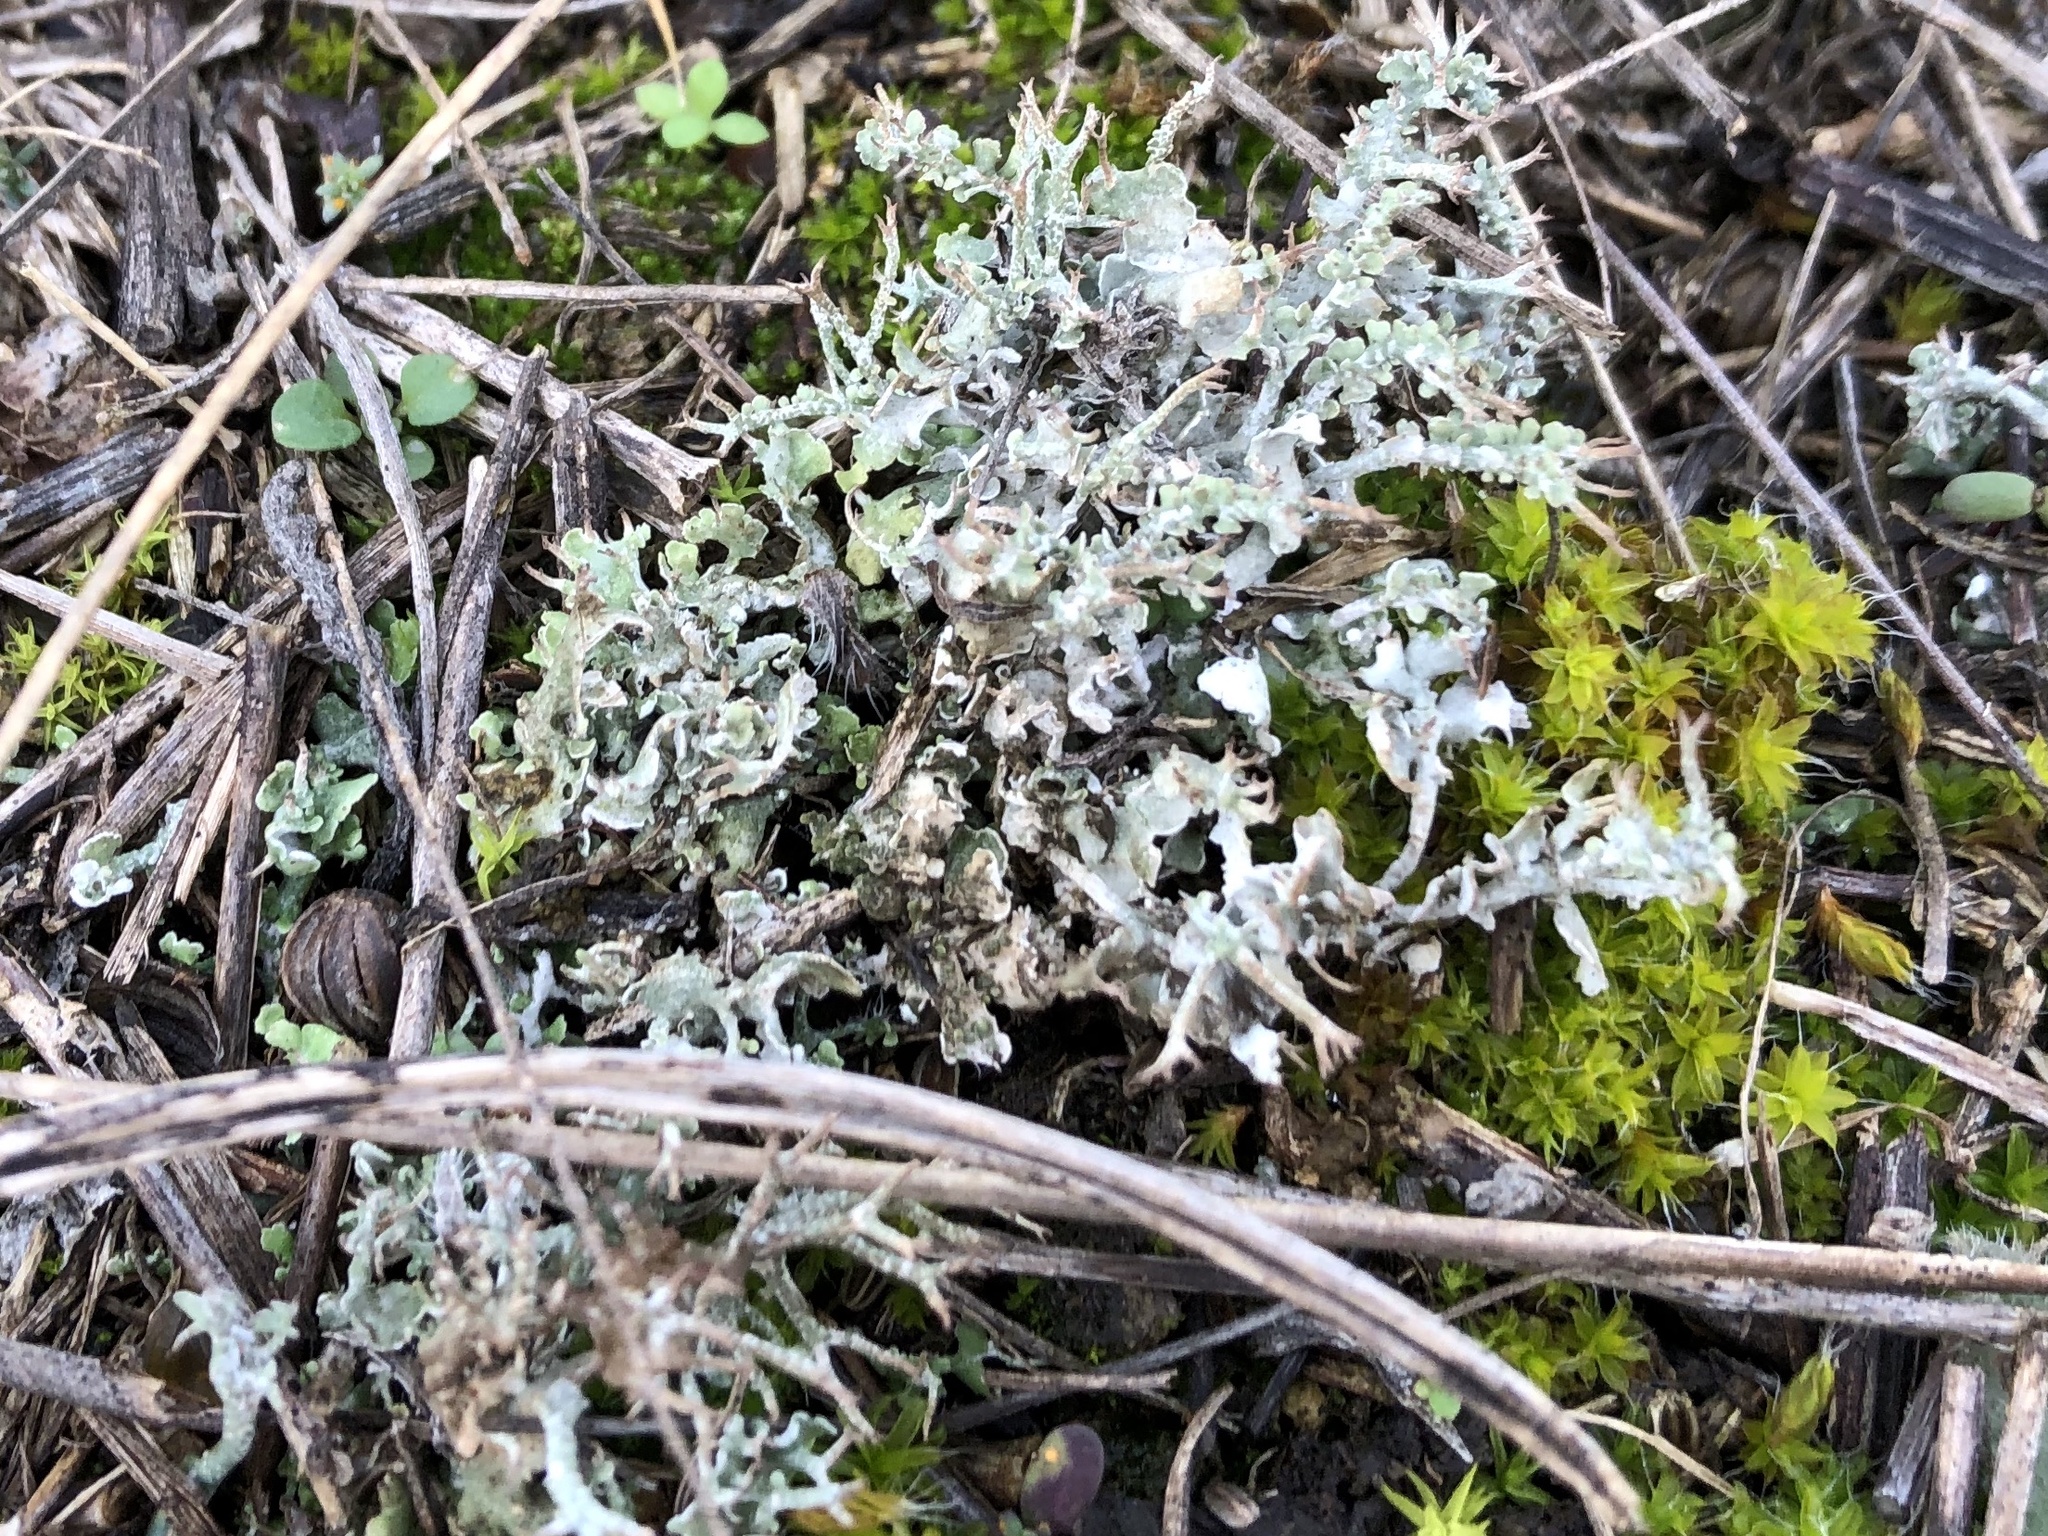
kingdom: Fungi
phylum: Ascomycota
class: Lecanoromycetes
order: Lecanorales
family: Cladoniaceae
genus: Cladonia
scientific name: Cladonia furcata
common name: Many-forked cladonia
